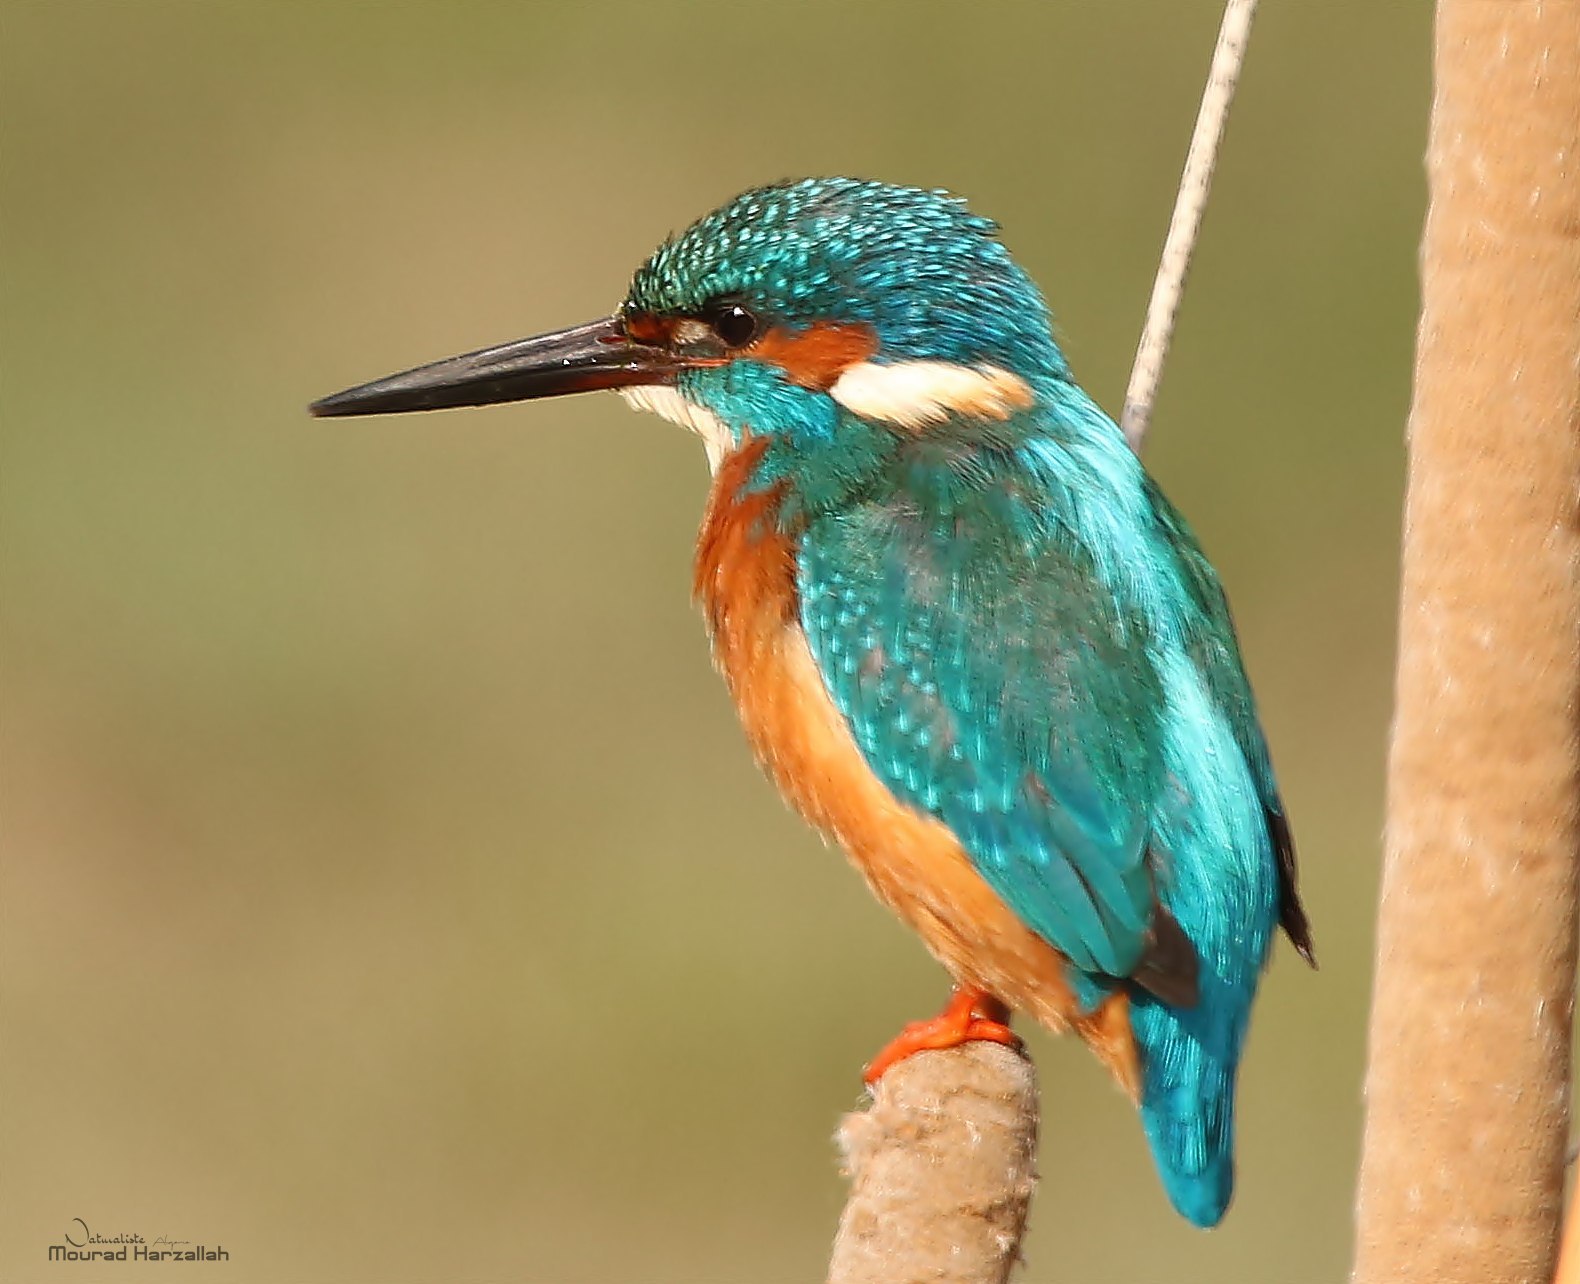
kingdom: Animalia
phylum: Chordata
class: Aves
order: Coraciiformes
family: Alcedinidae
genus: Alcedo
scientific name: Alcedo atthis
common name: Common kingfisher
